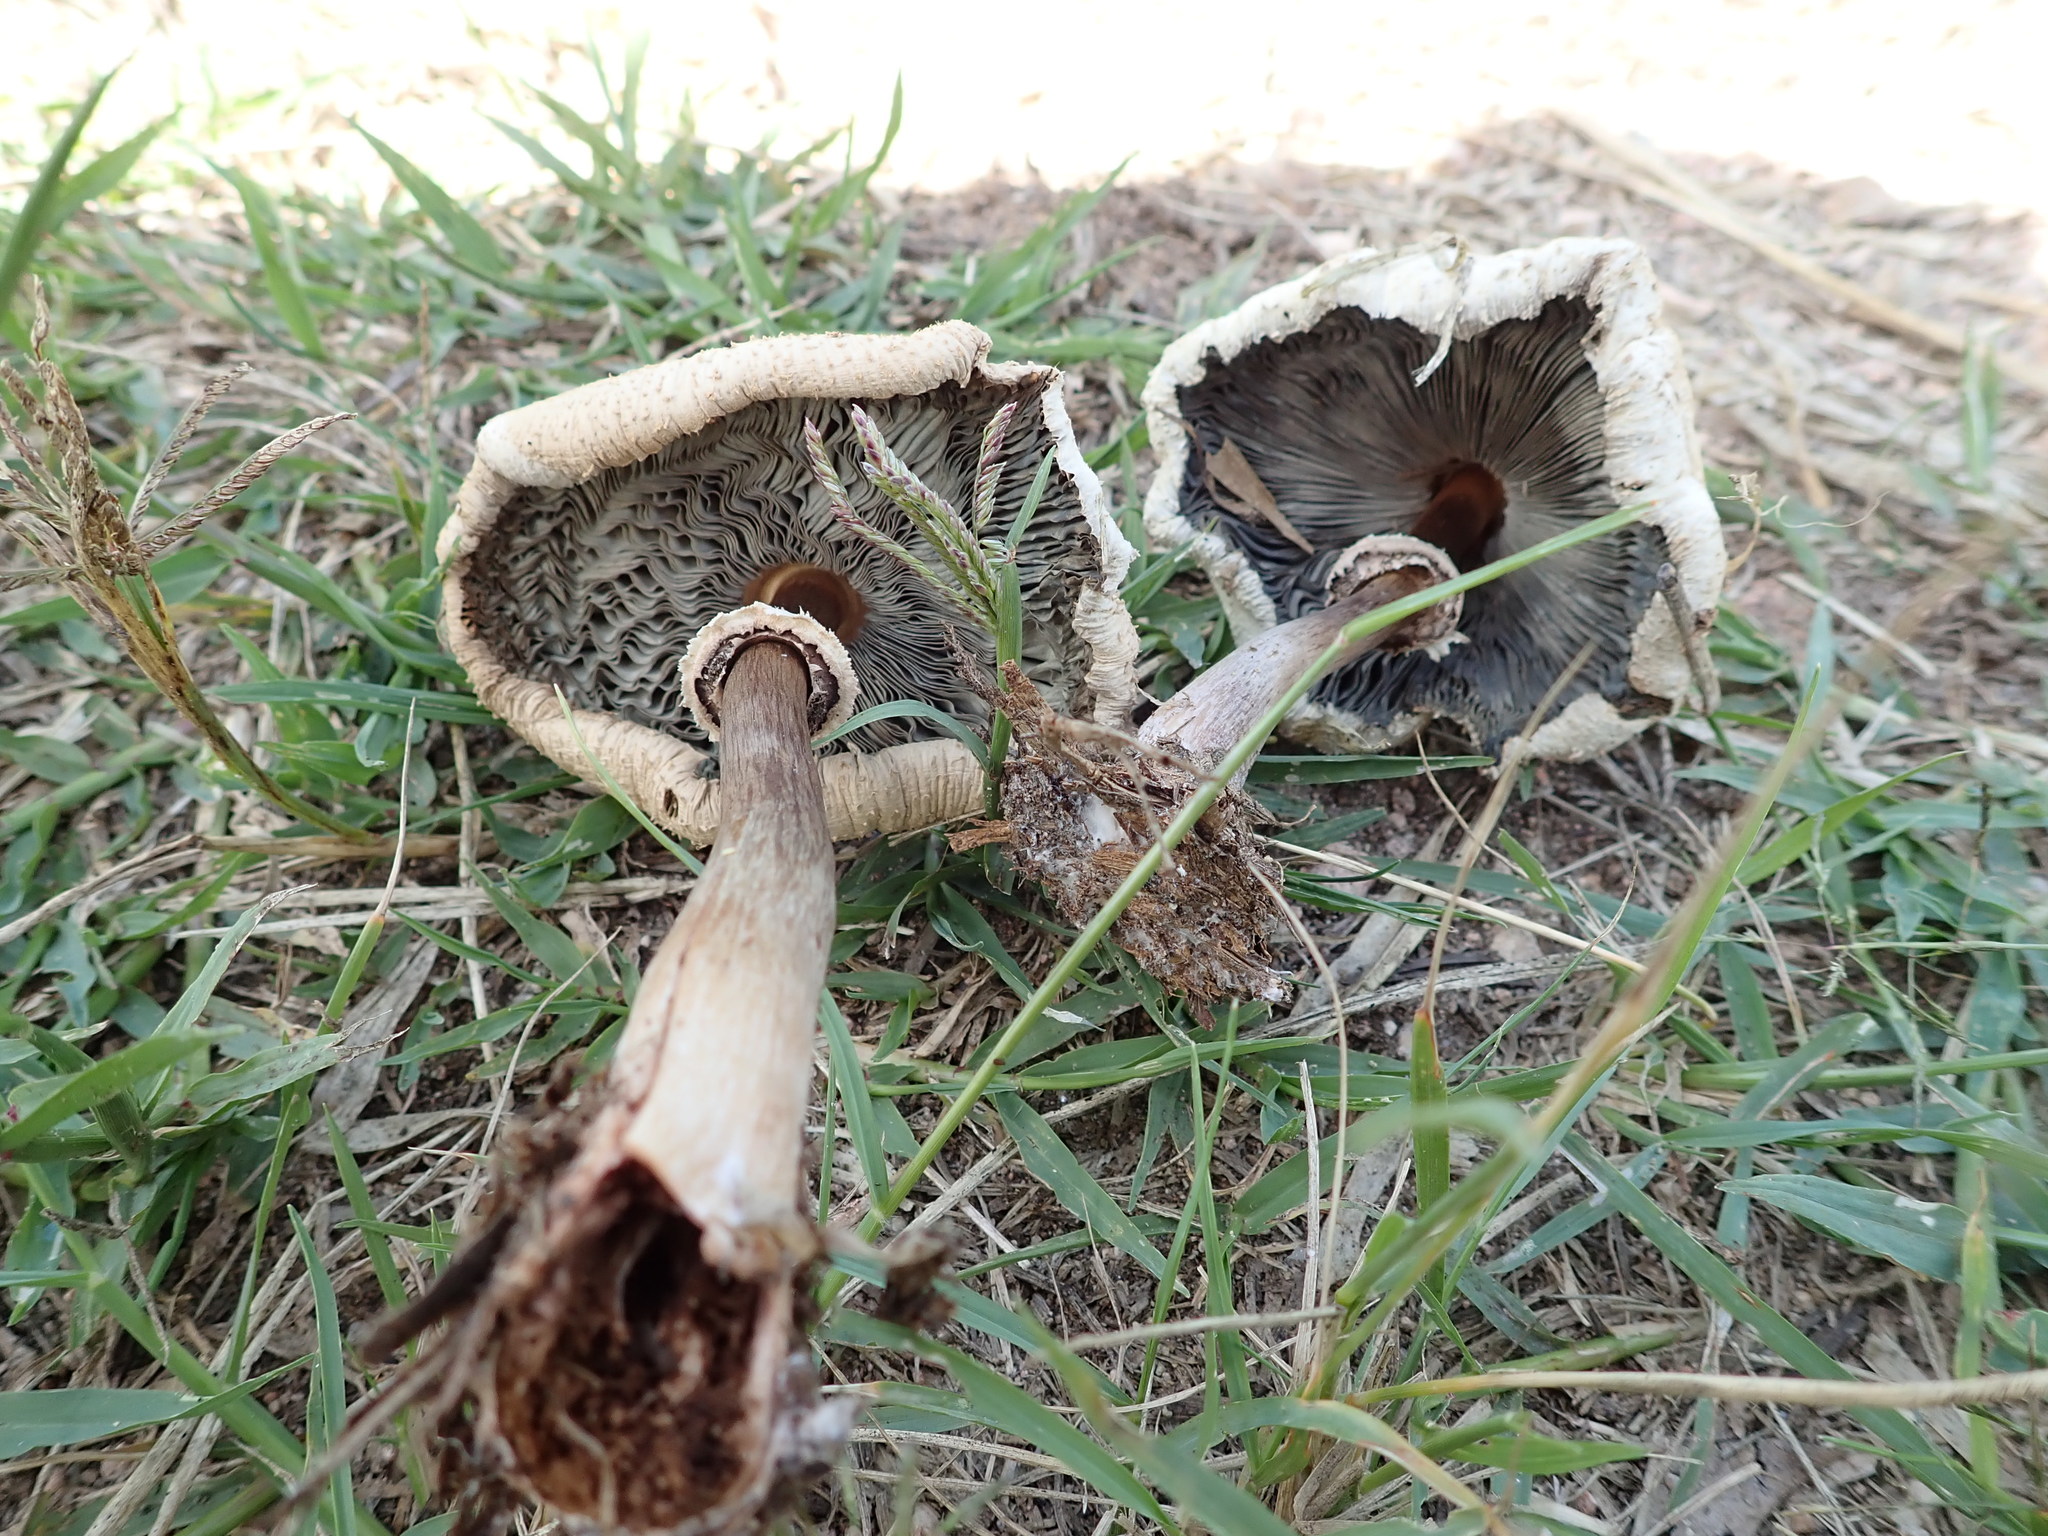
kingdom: Fungi
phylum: Basidiomycota
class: Agaricomycetes
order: Agaricales
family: Agaricaceae
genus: Chlorophyllum
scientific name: Chlorophyllum molybdites
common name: False parasol
